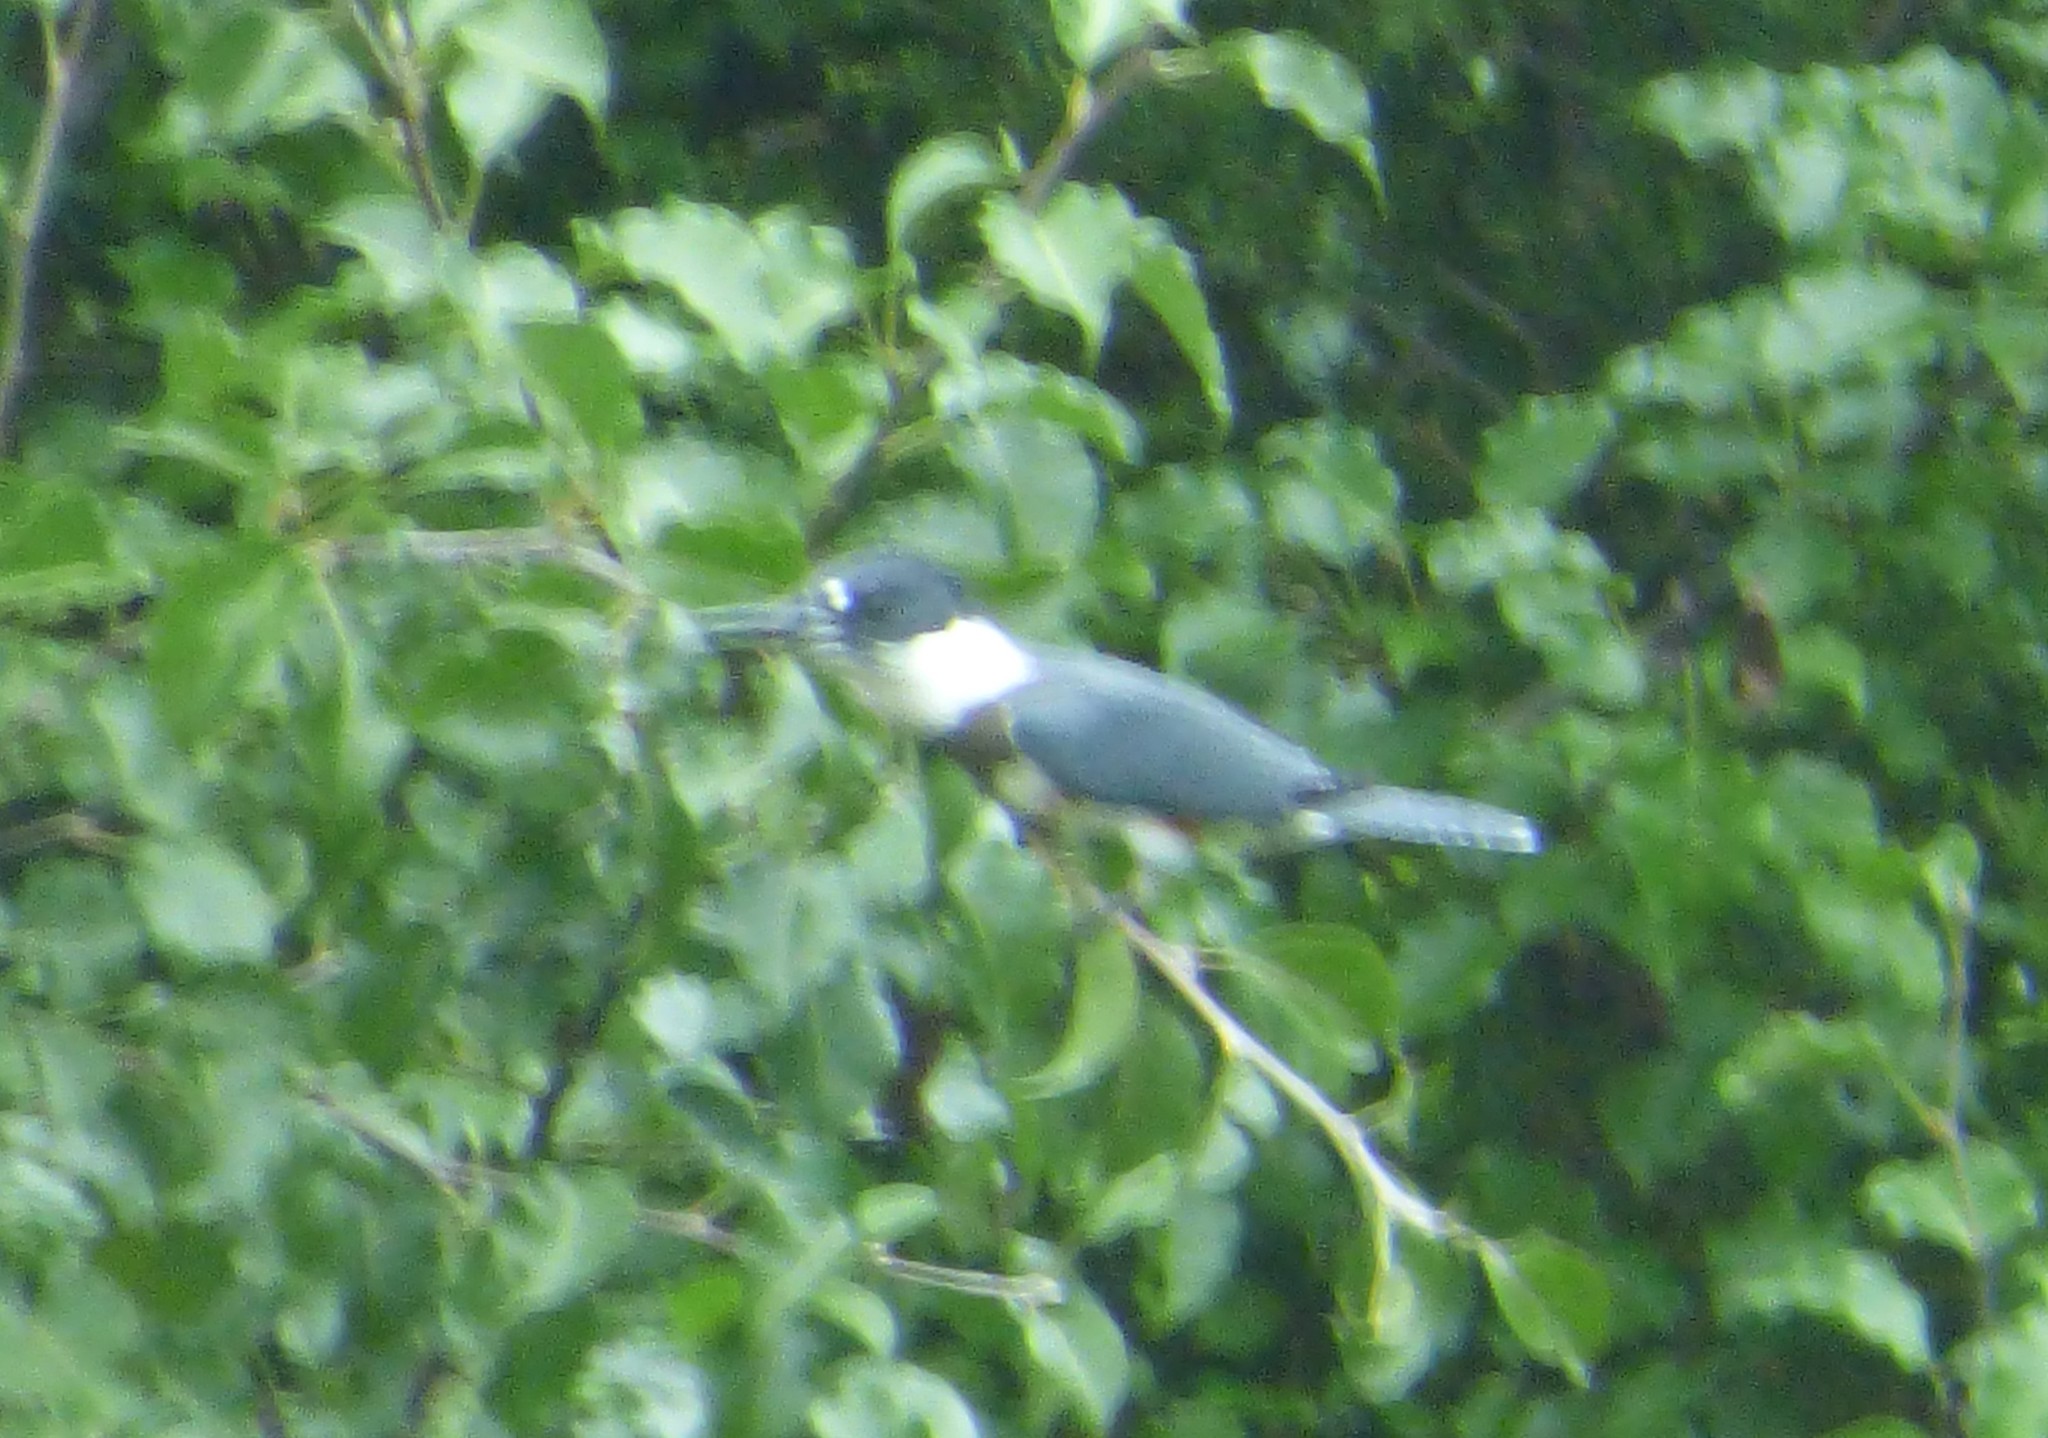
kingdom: Animalia
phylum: Chordata
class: Aves
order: Coraciiformes
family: Alcedinidae
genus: Megaceryle
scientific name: Megaceryle alcyon
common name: Belted kingfisher
